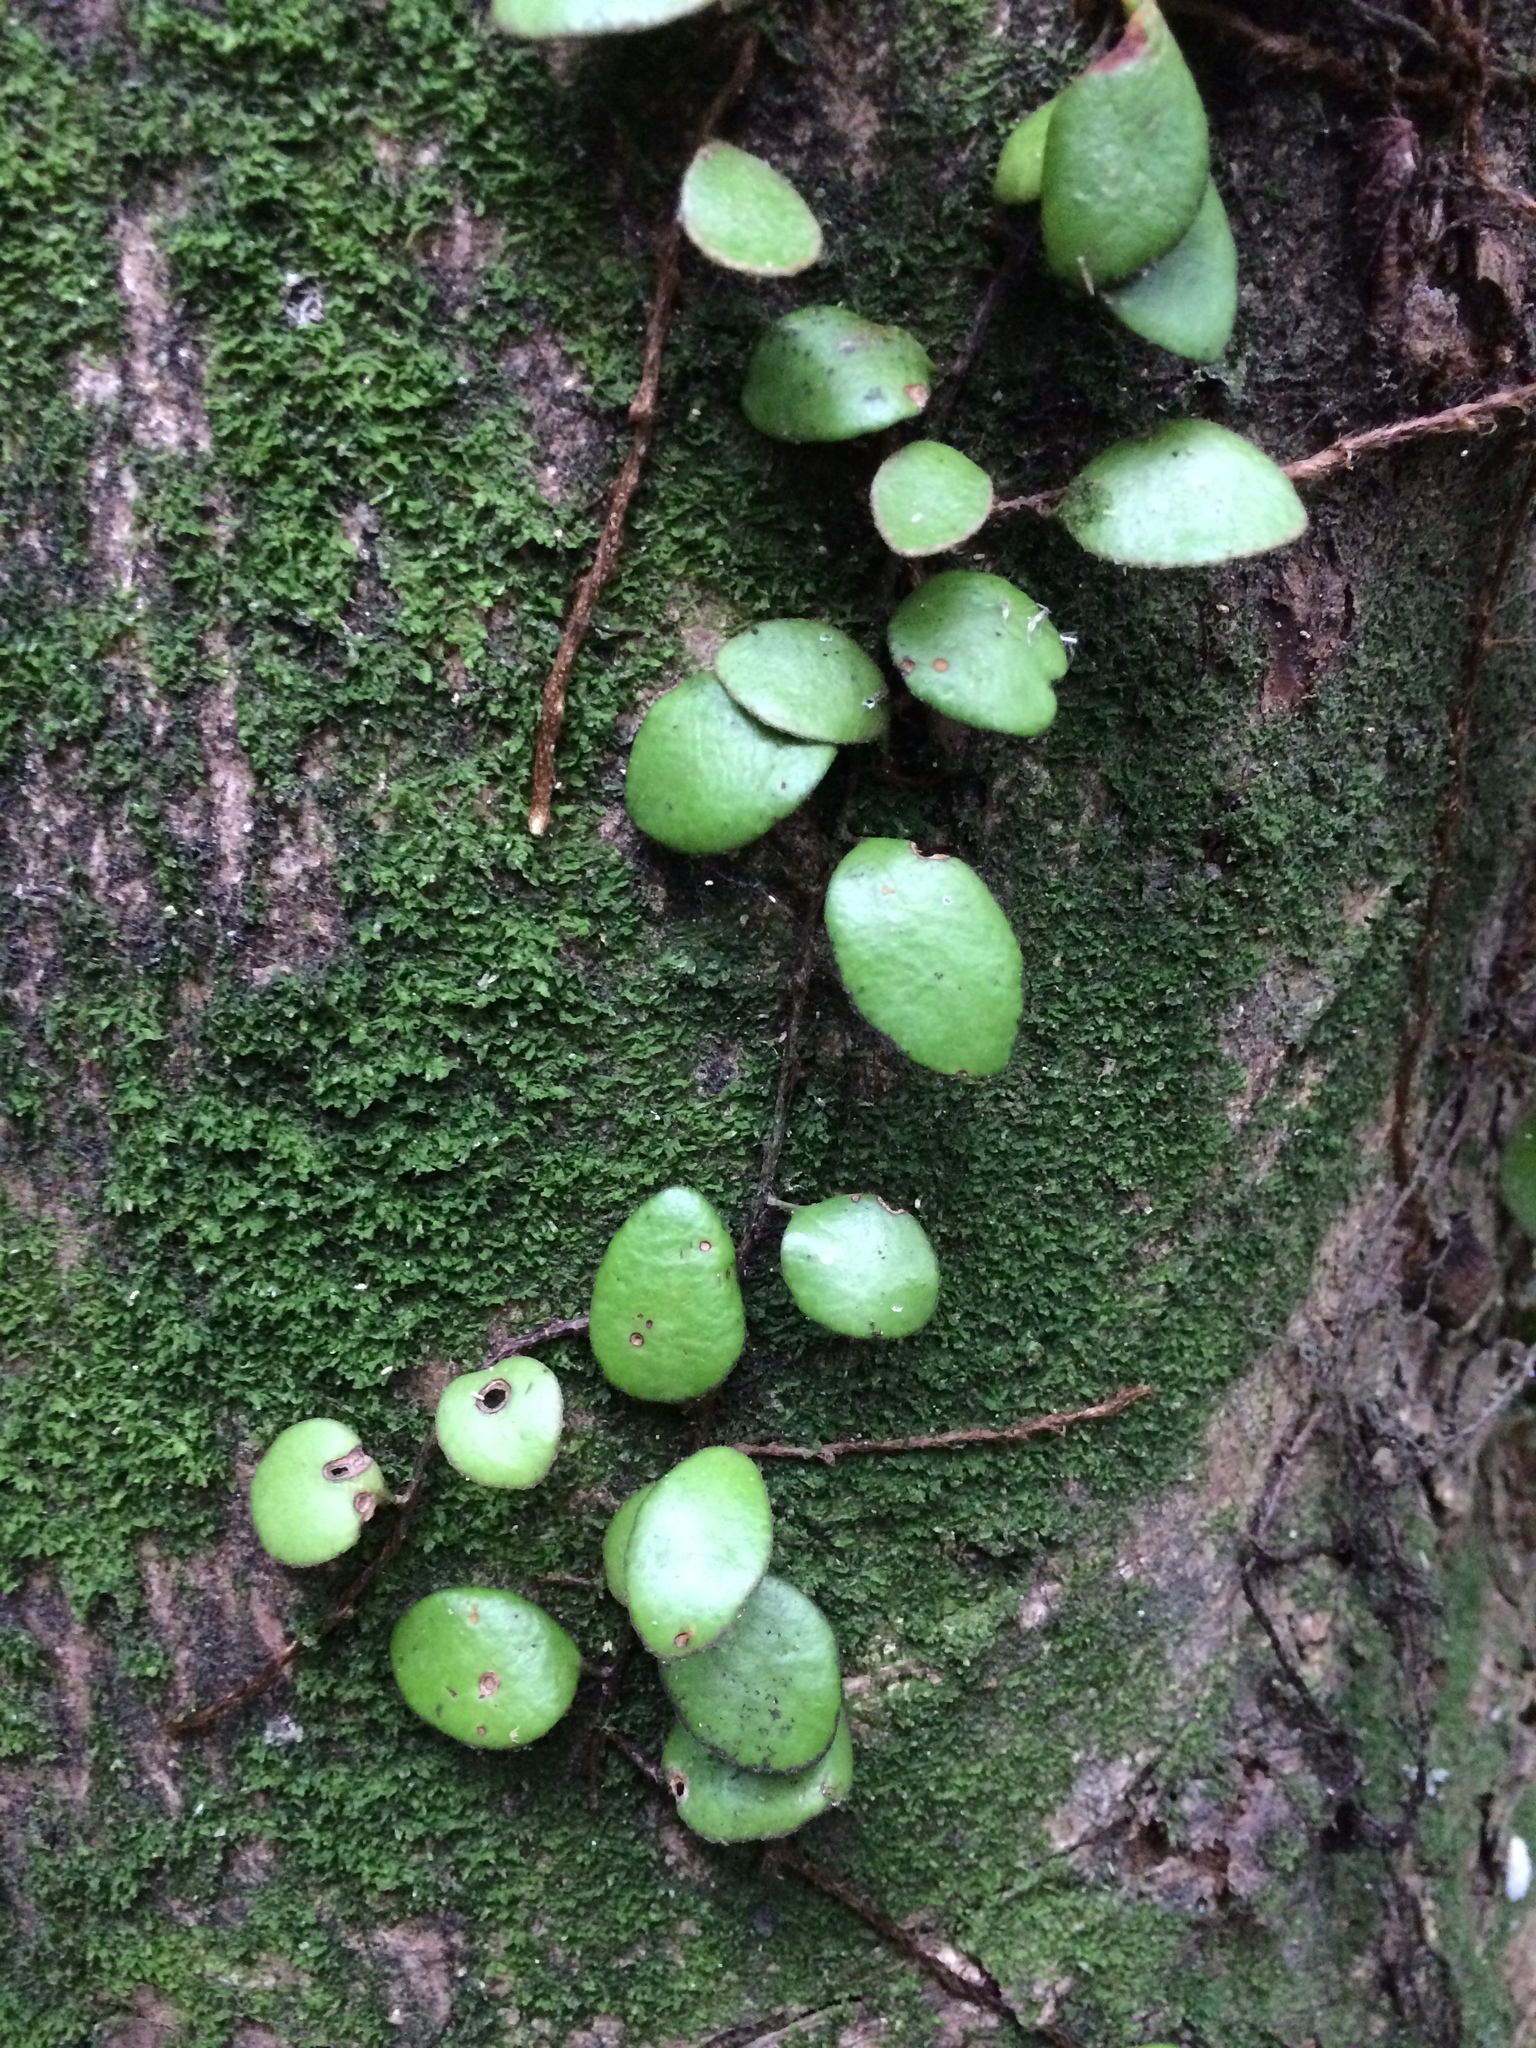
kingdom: Plantae
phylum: Tracheophyta
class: Polypodiopsida
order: Polypodiales
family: Polypodiaceae
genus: Pyrrosia
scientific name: Pyrrosia eleagnifolia
